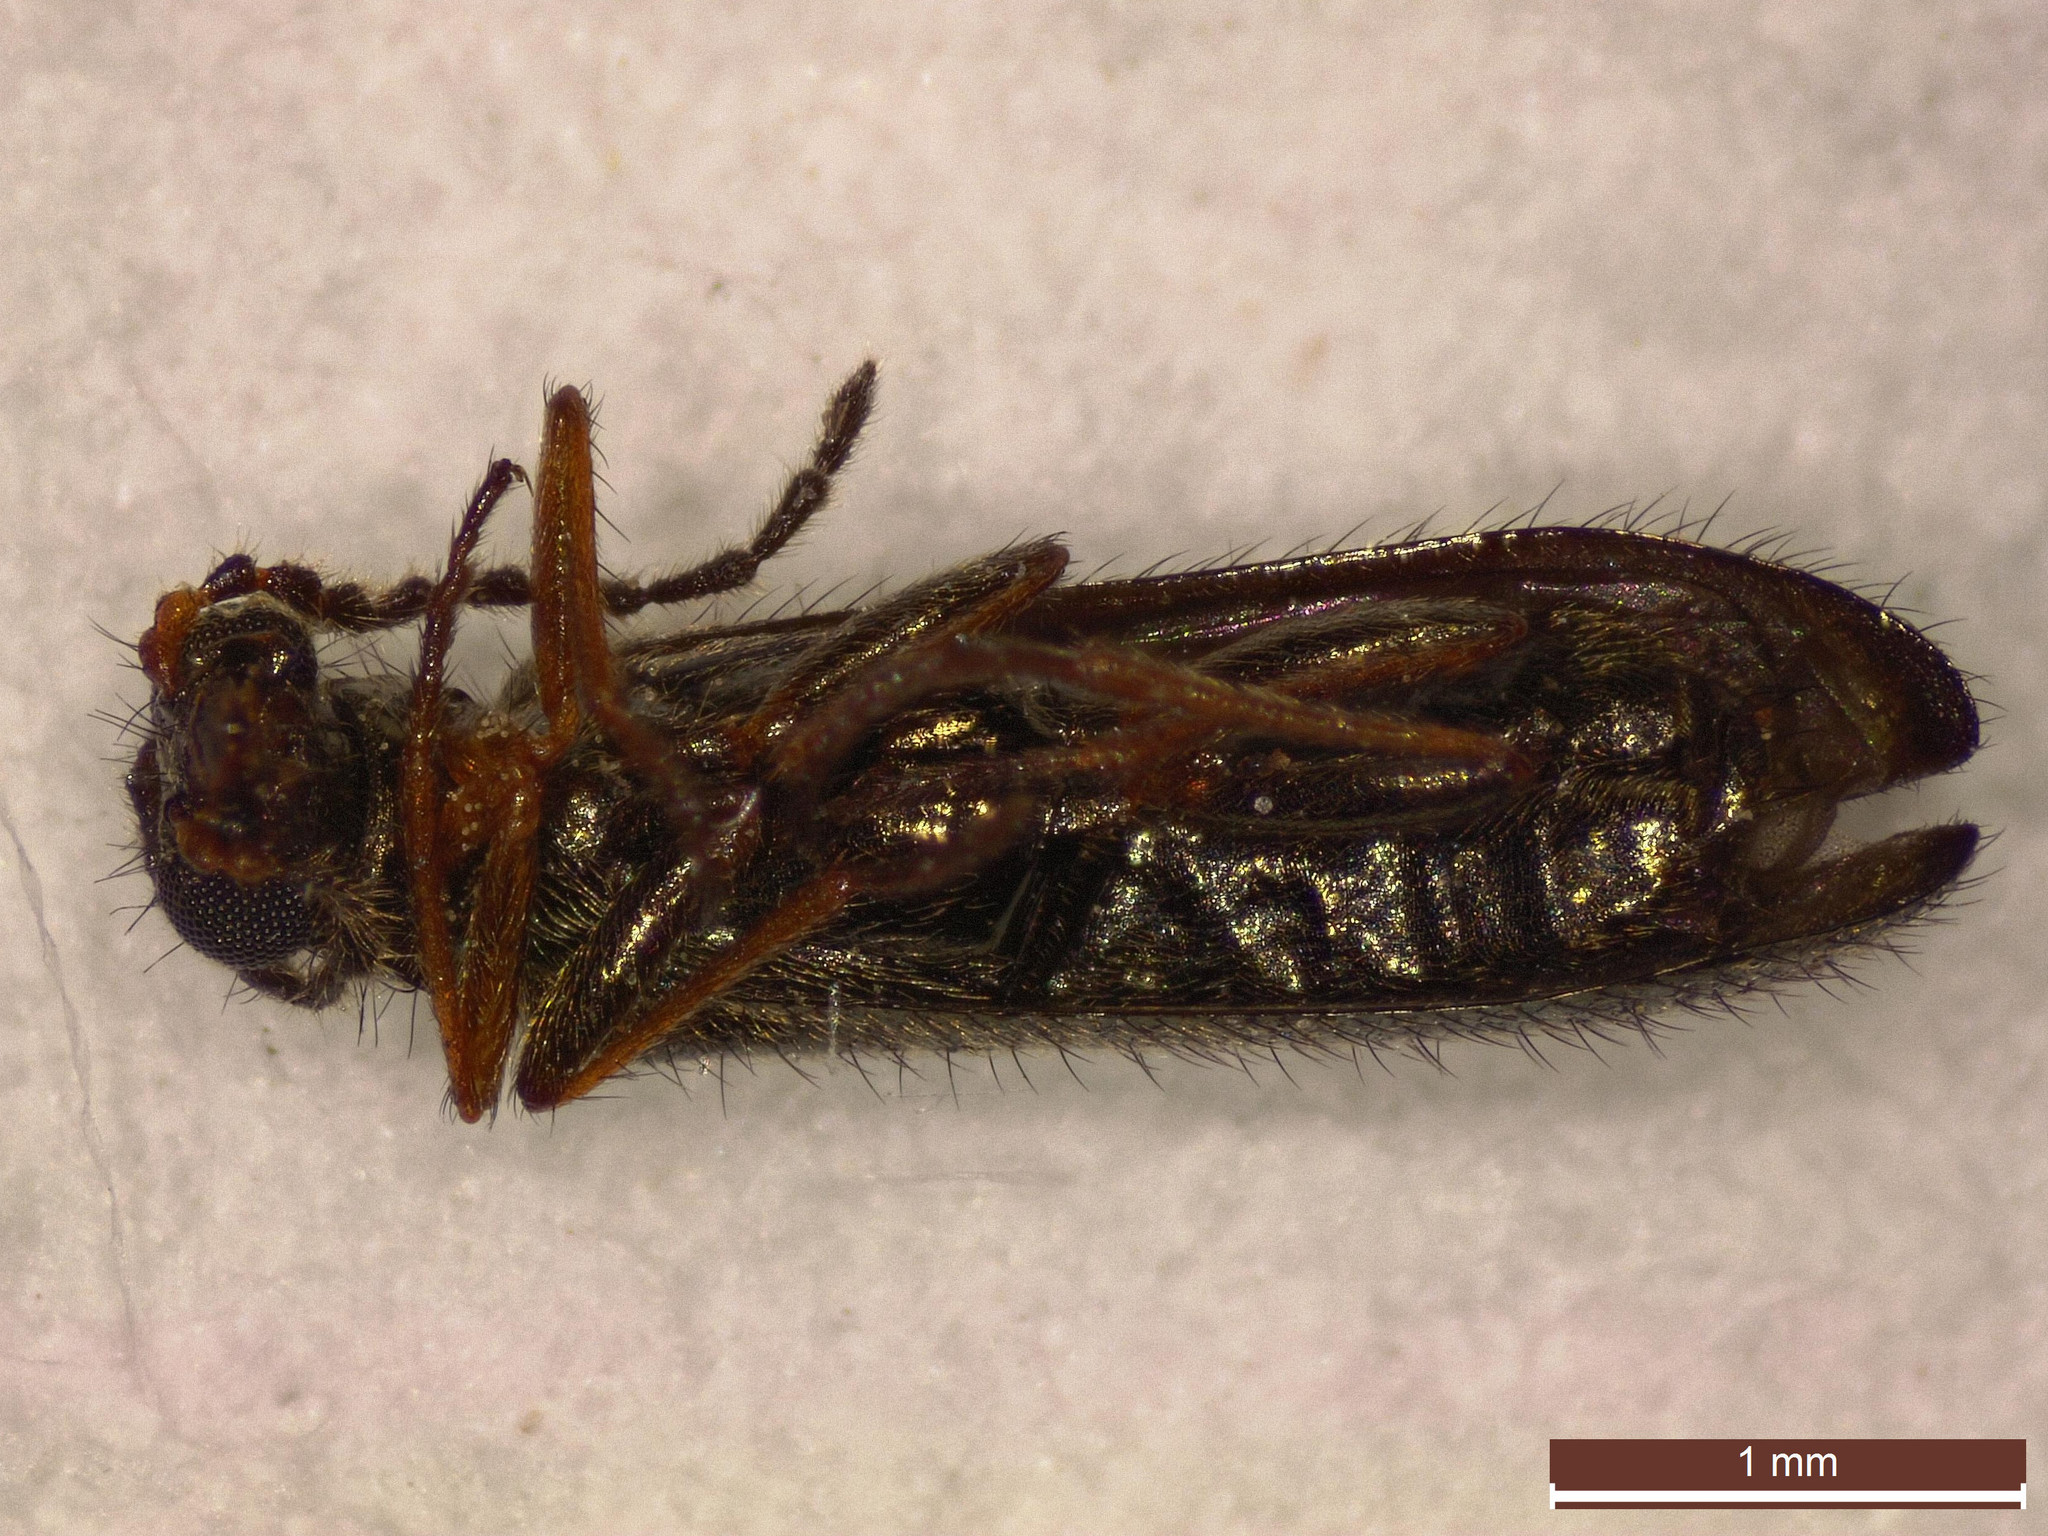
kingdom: Animalia
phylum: Arthropoda
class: Insecta
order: Coleoptera
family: Melyridae
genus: Dasytes
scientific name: Dasytes plumbeus
